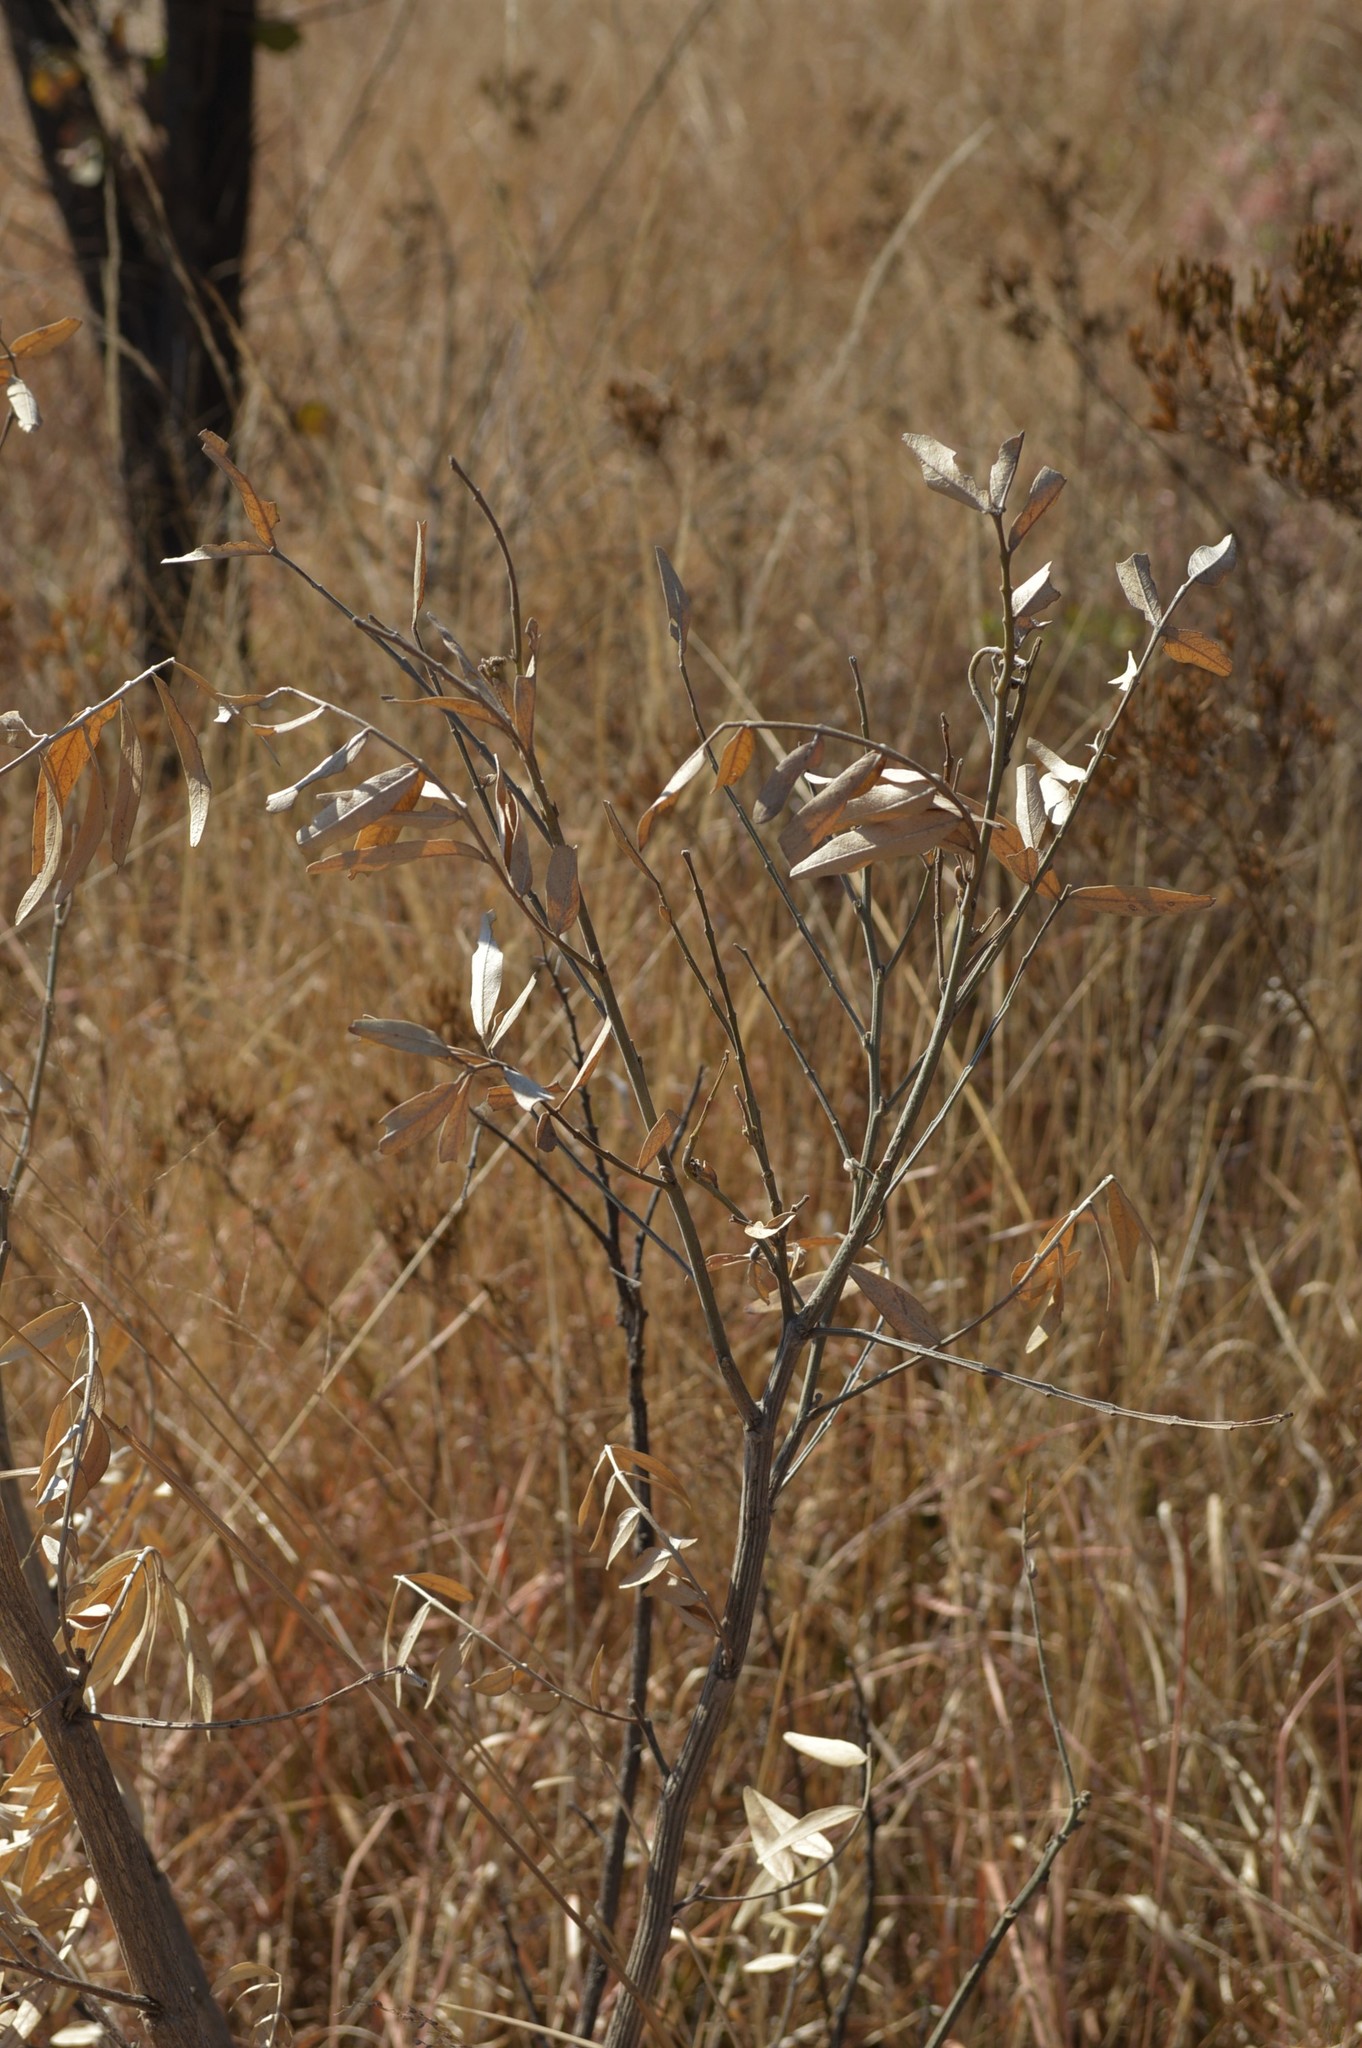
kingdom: Plantae
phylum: Tracheophyta
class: Magnoliopsida
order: Fabales
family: Fabaceae
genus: Mundulea
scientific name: Mundulea sericea
